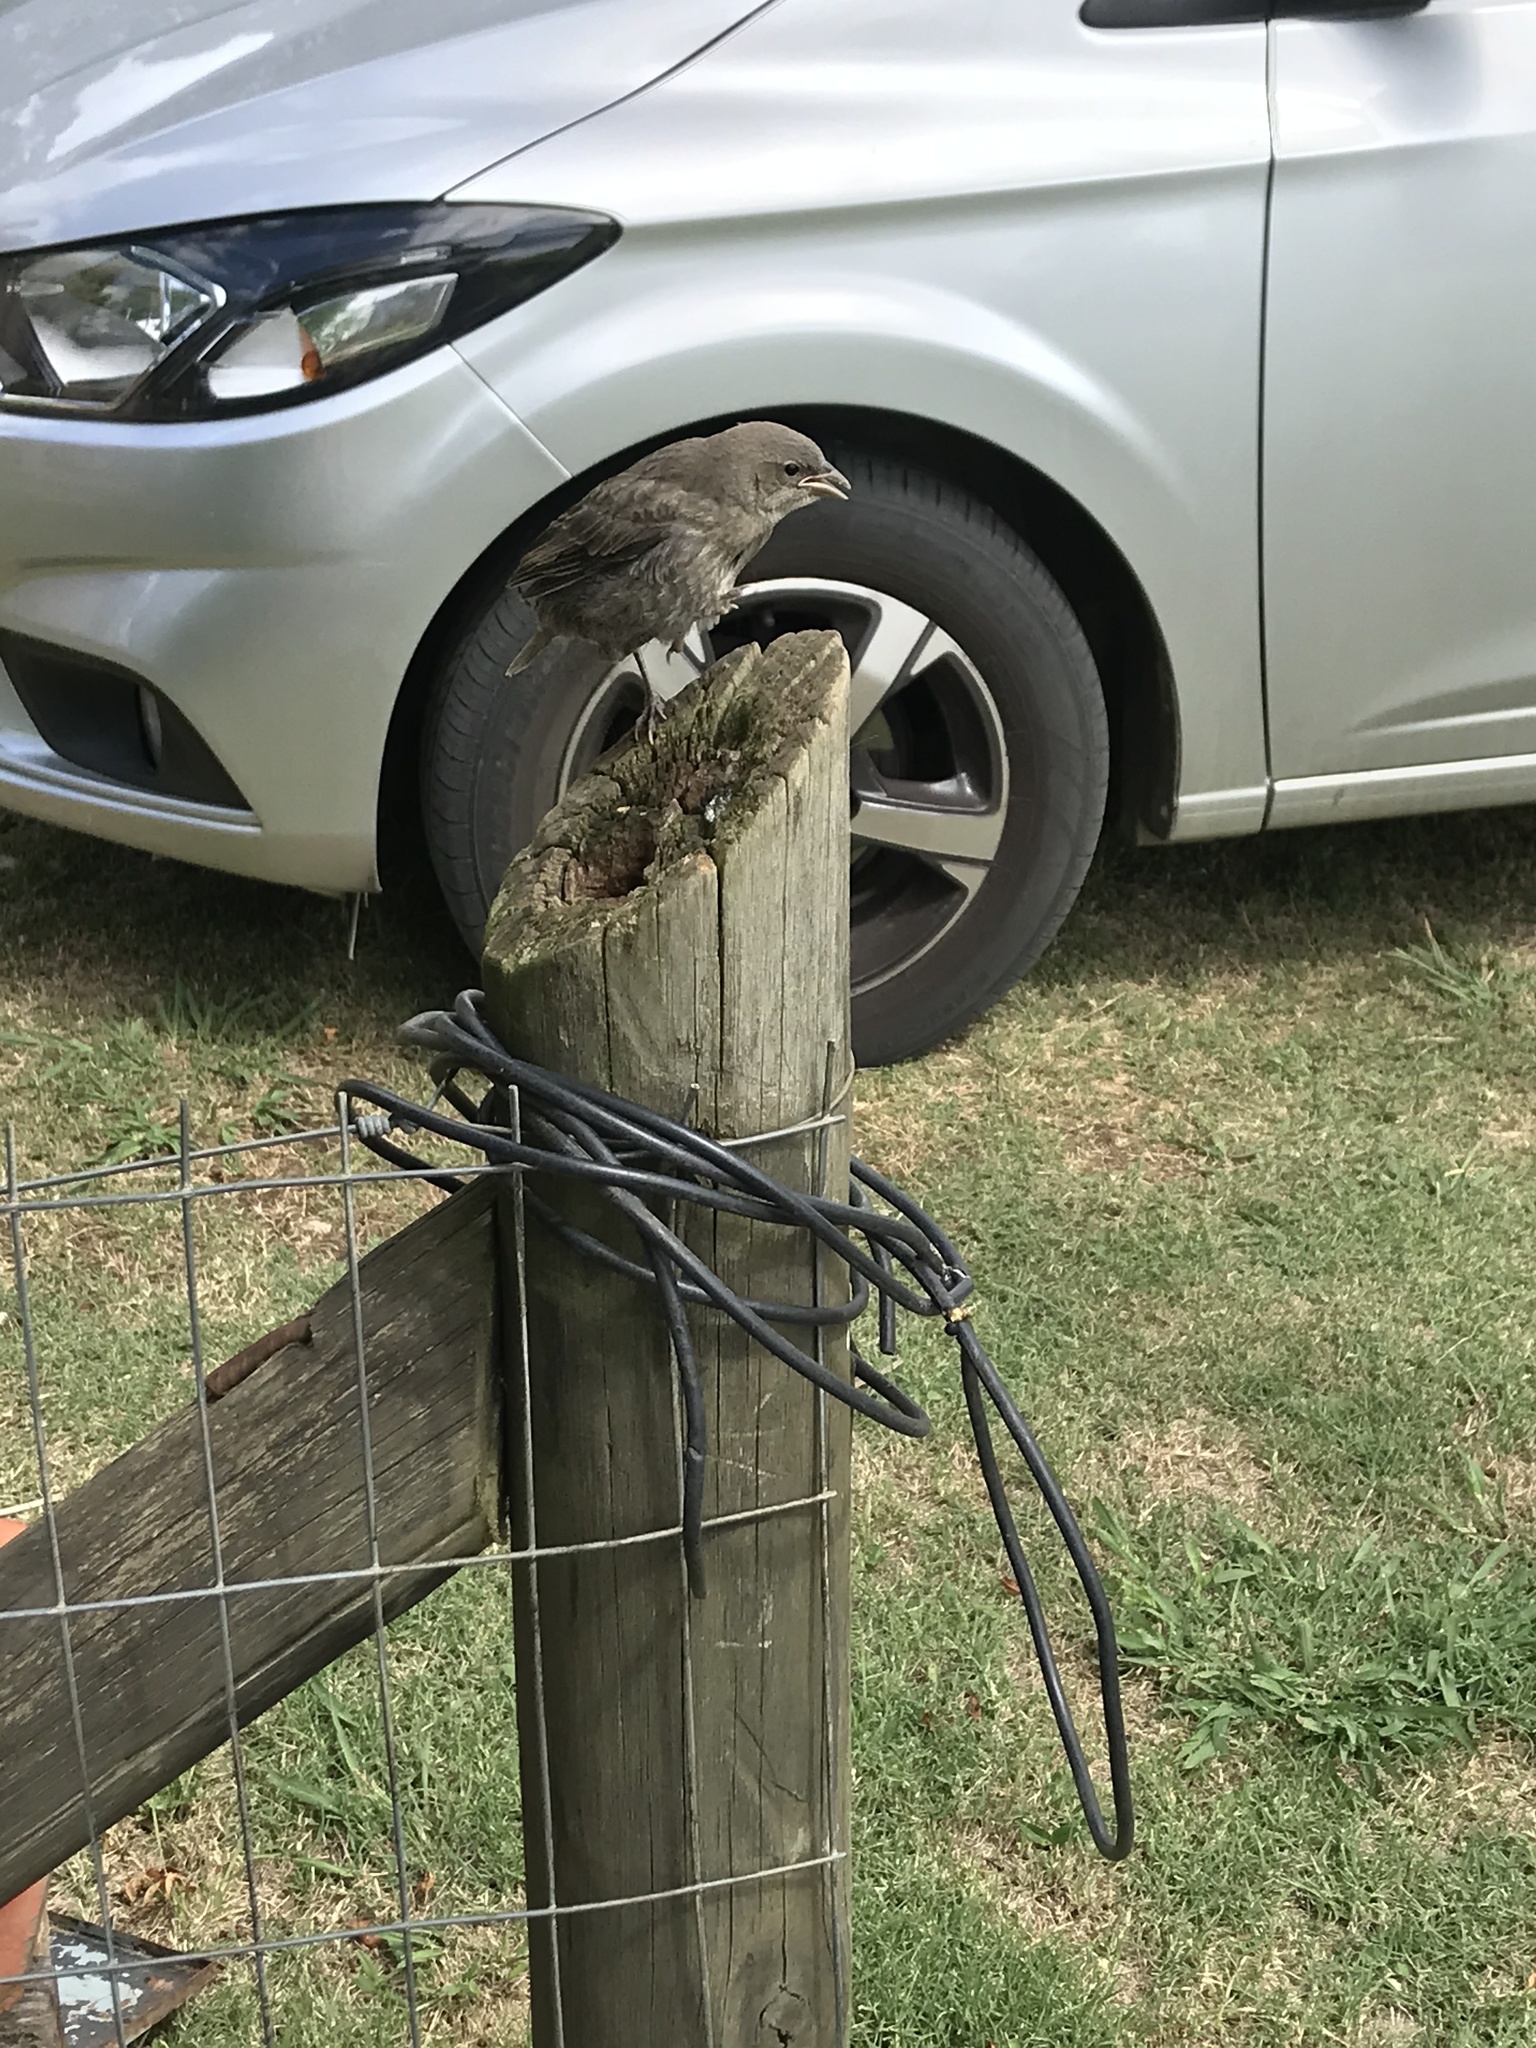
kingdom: Animalia
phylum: Chordata
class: Aves
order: Passeriformes
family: Icteridae
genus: Molothrus
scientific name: Molothrus bonariensis
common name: Shiny cowbird
